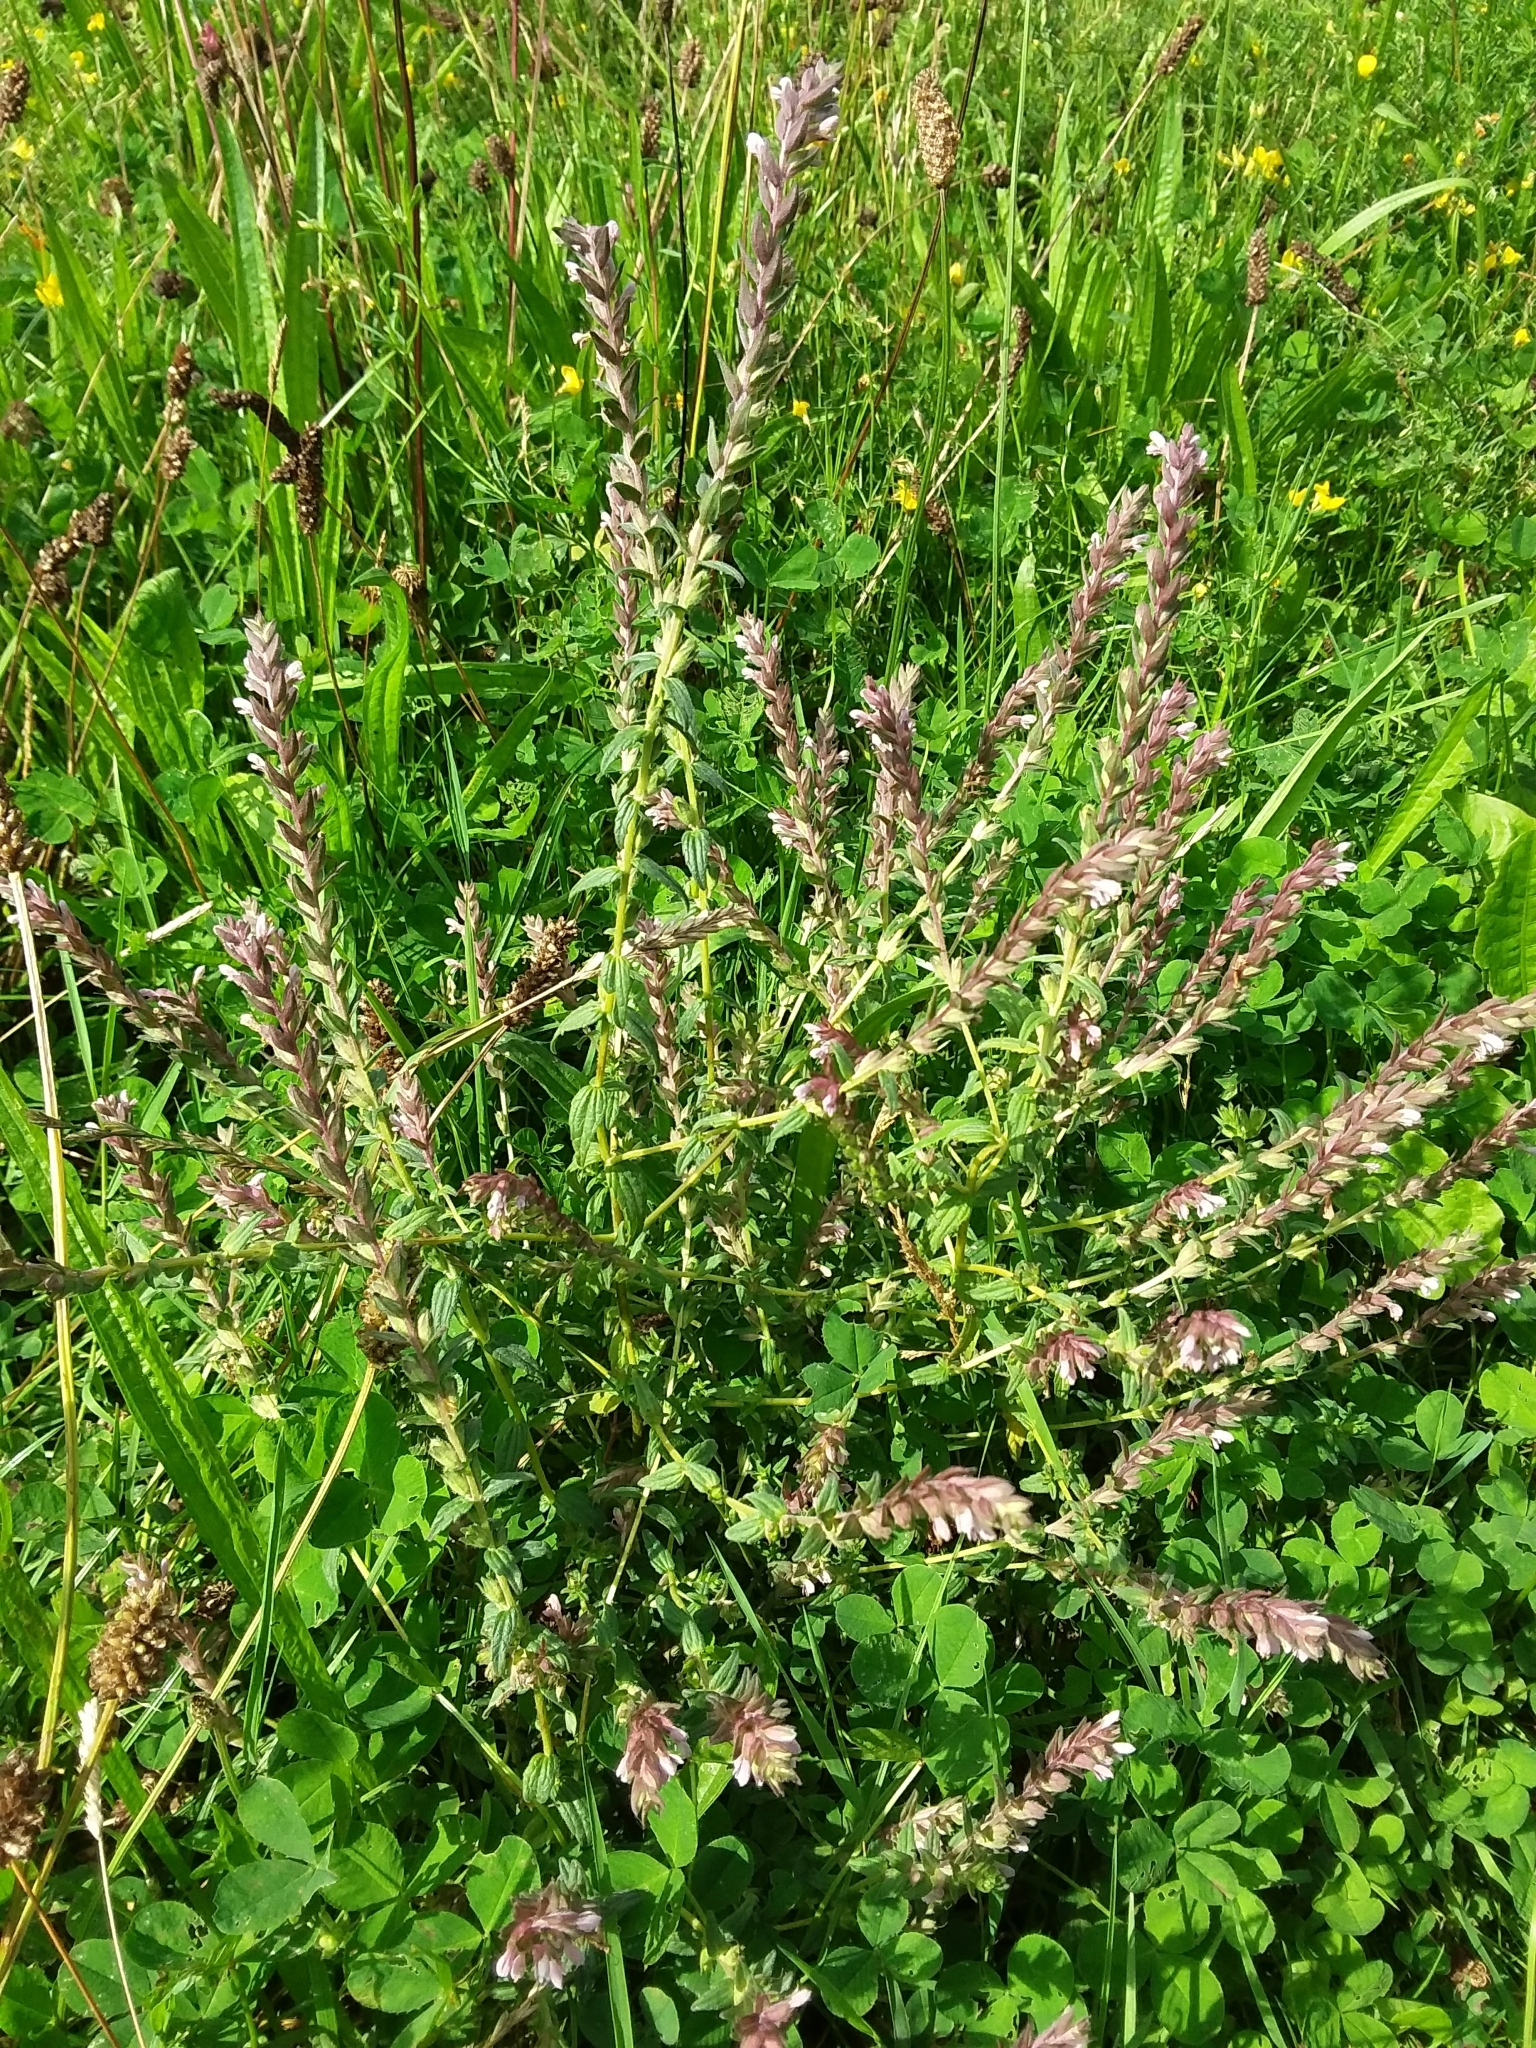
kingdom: Plantae
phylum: Tracheophyta
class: Magnoliopsida
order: Lamiales
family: Orobanchaceae
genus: Odontites
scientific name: Odontites vulgaris
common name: Broomrape
